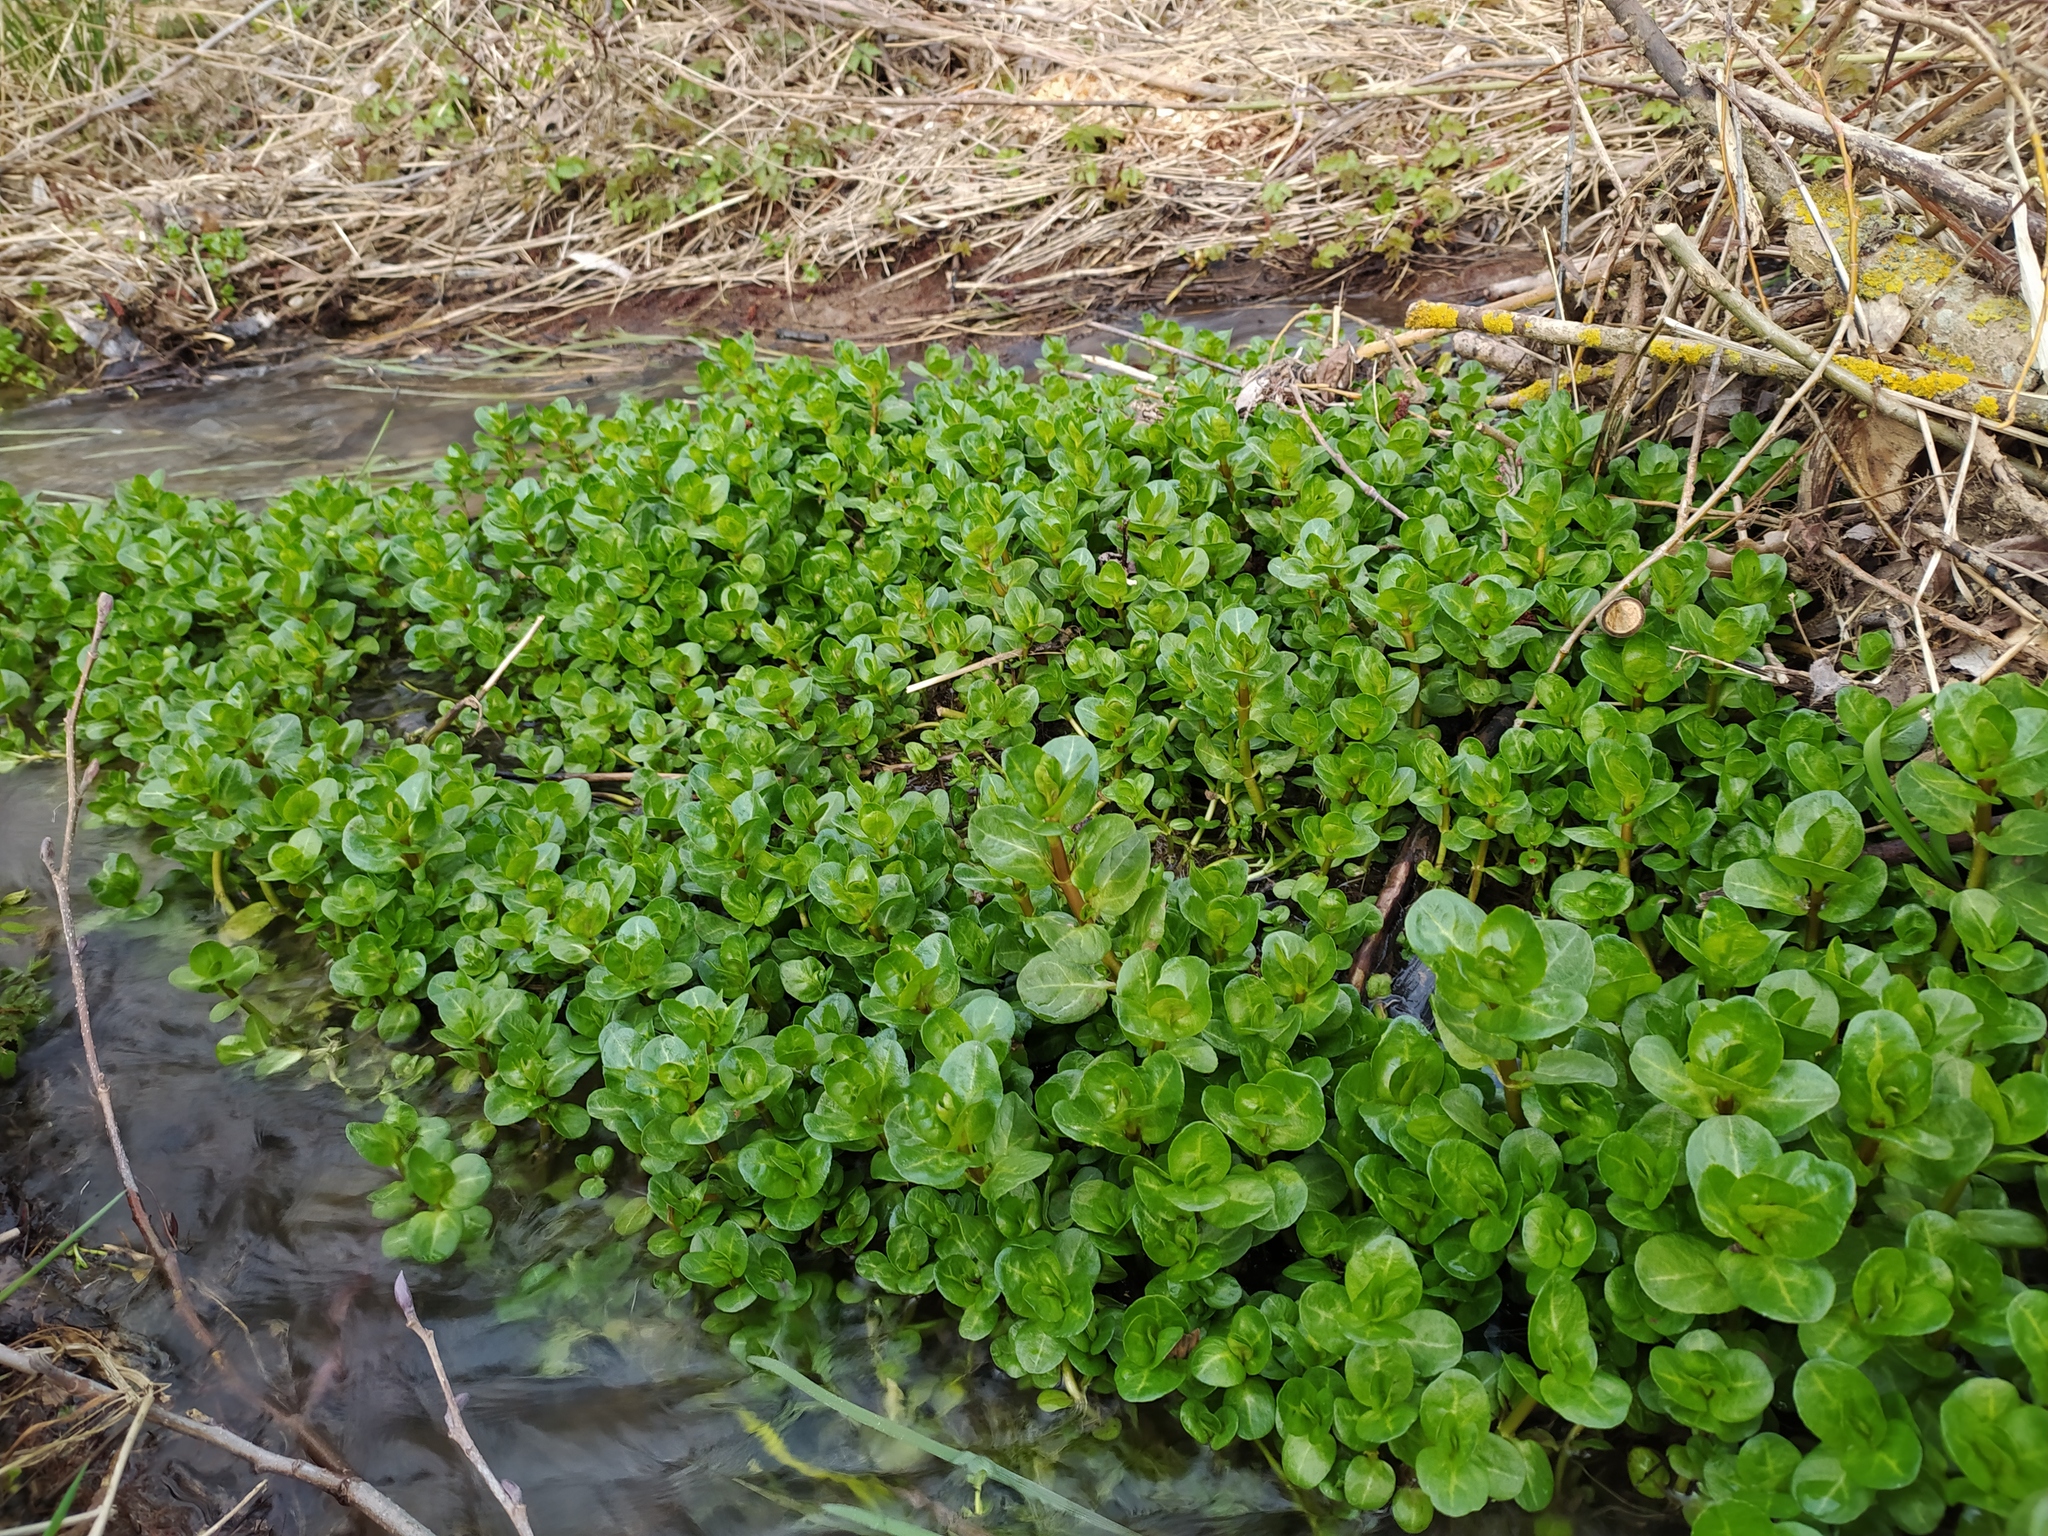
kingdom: Plantae
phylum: Tracheophyta
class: Magnoliopsida
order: Lamiales
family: Plantaginaceae
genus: Veronica
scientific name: Veronica beccabunga
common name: Brooklime
